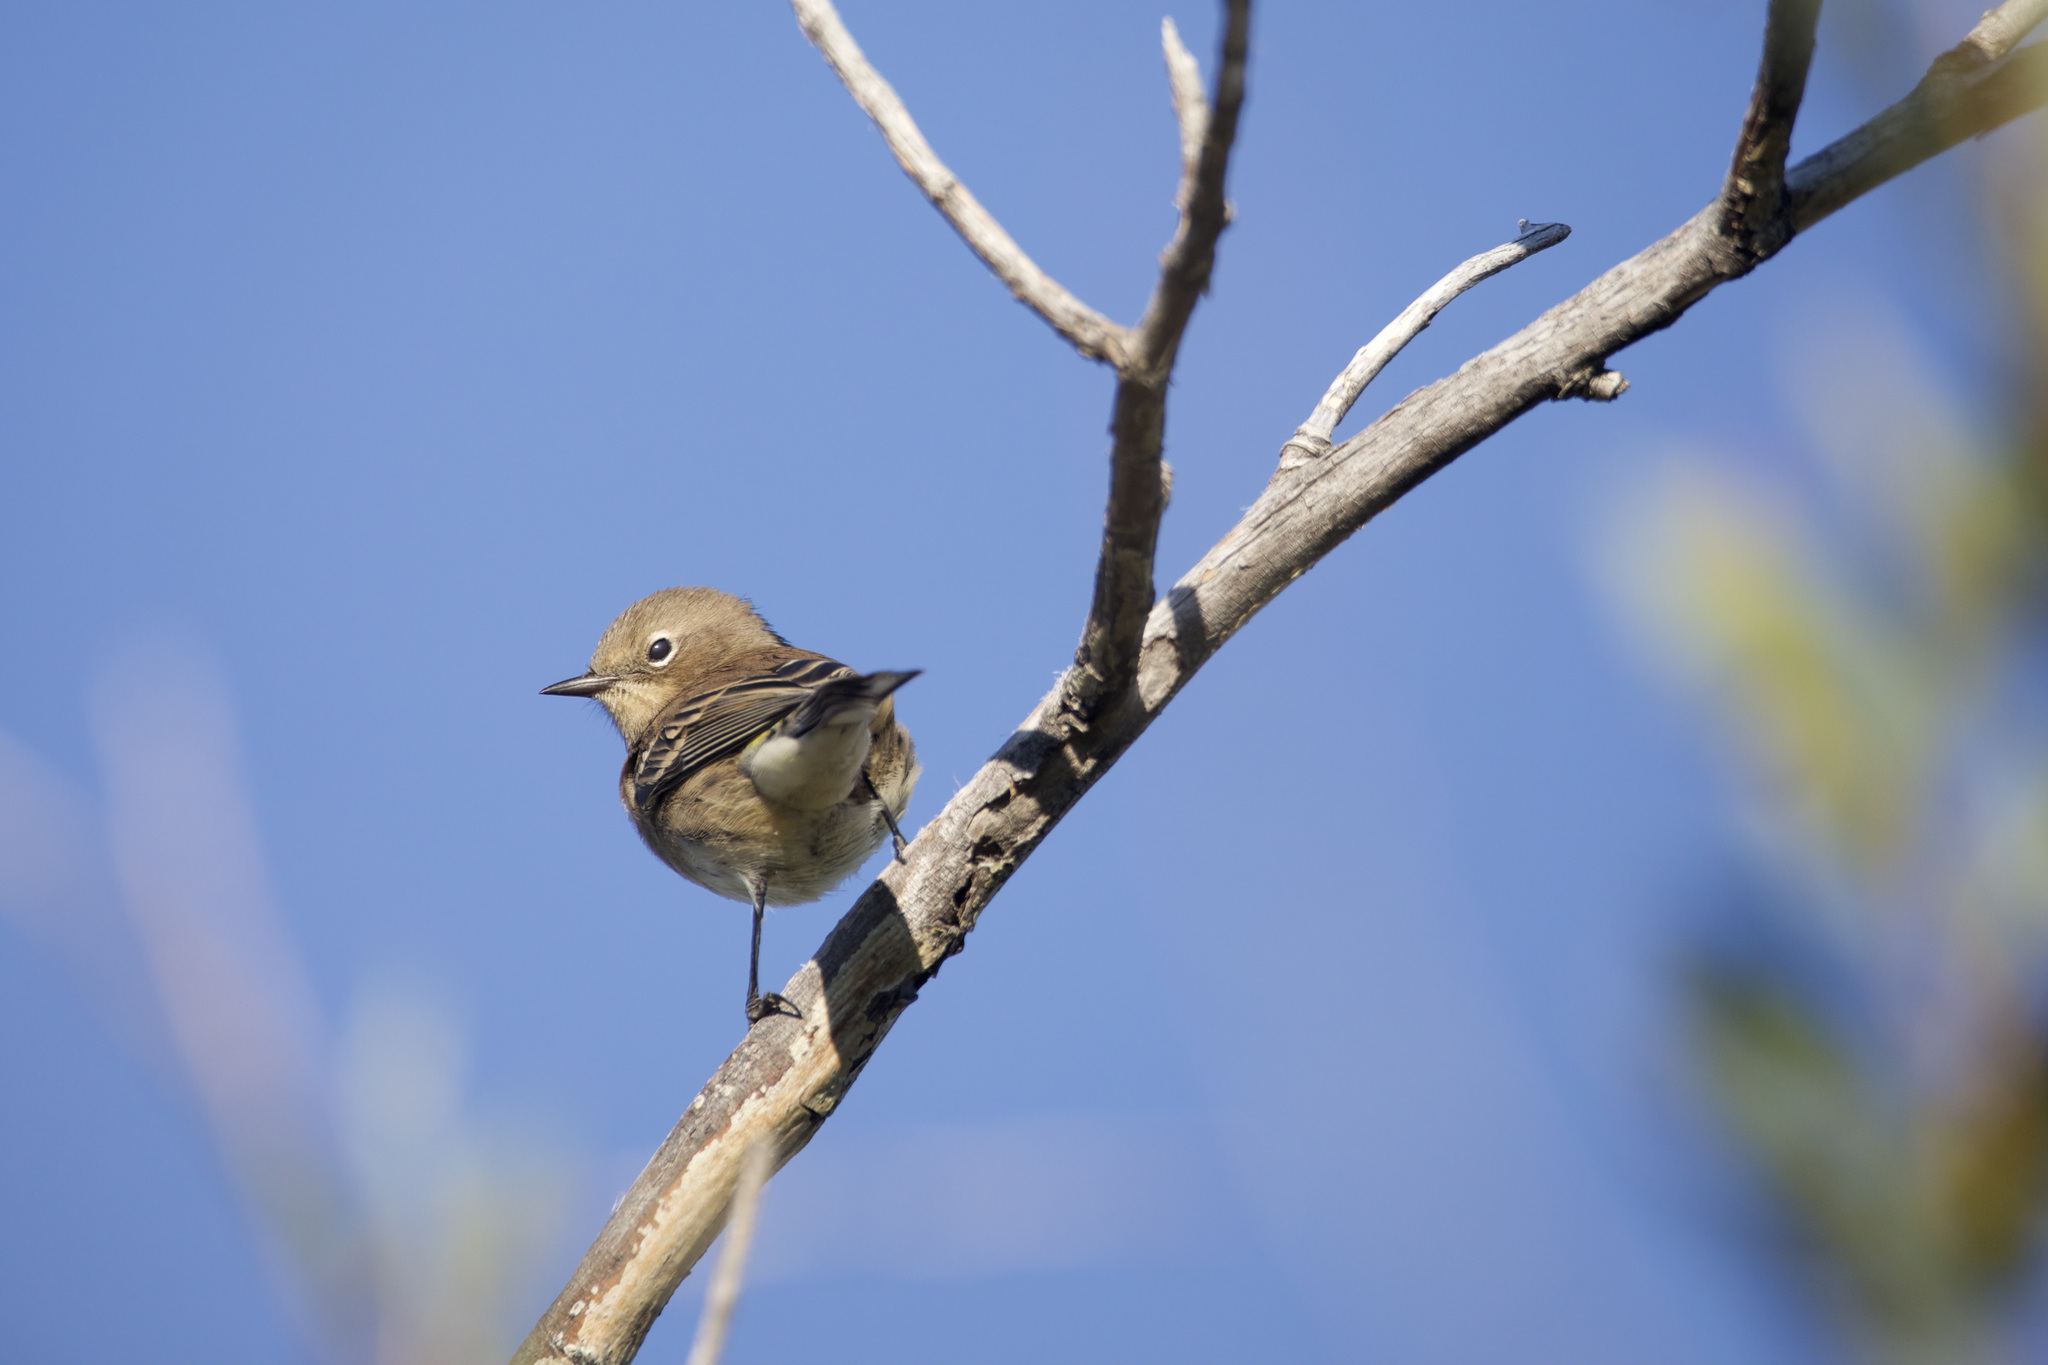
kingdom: Animalia
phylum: Chordata
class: Aves
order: Passeriformes
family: Parulidae
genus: Setophaga
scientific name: Setophaga coronata
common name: Myrtle warbler
